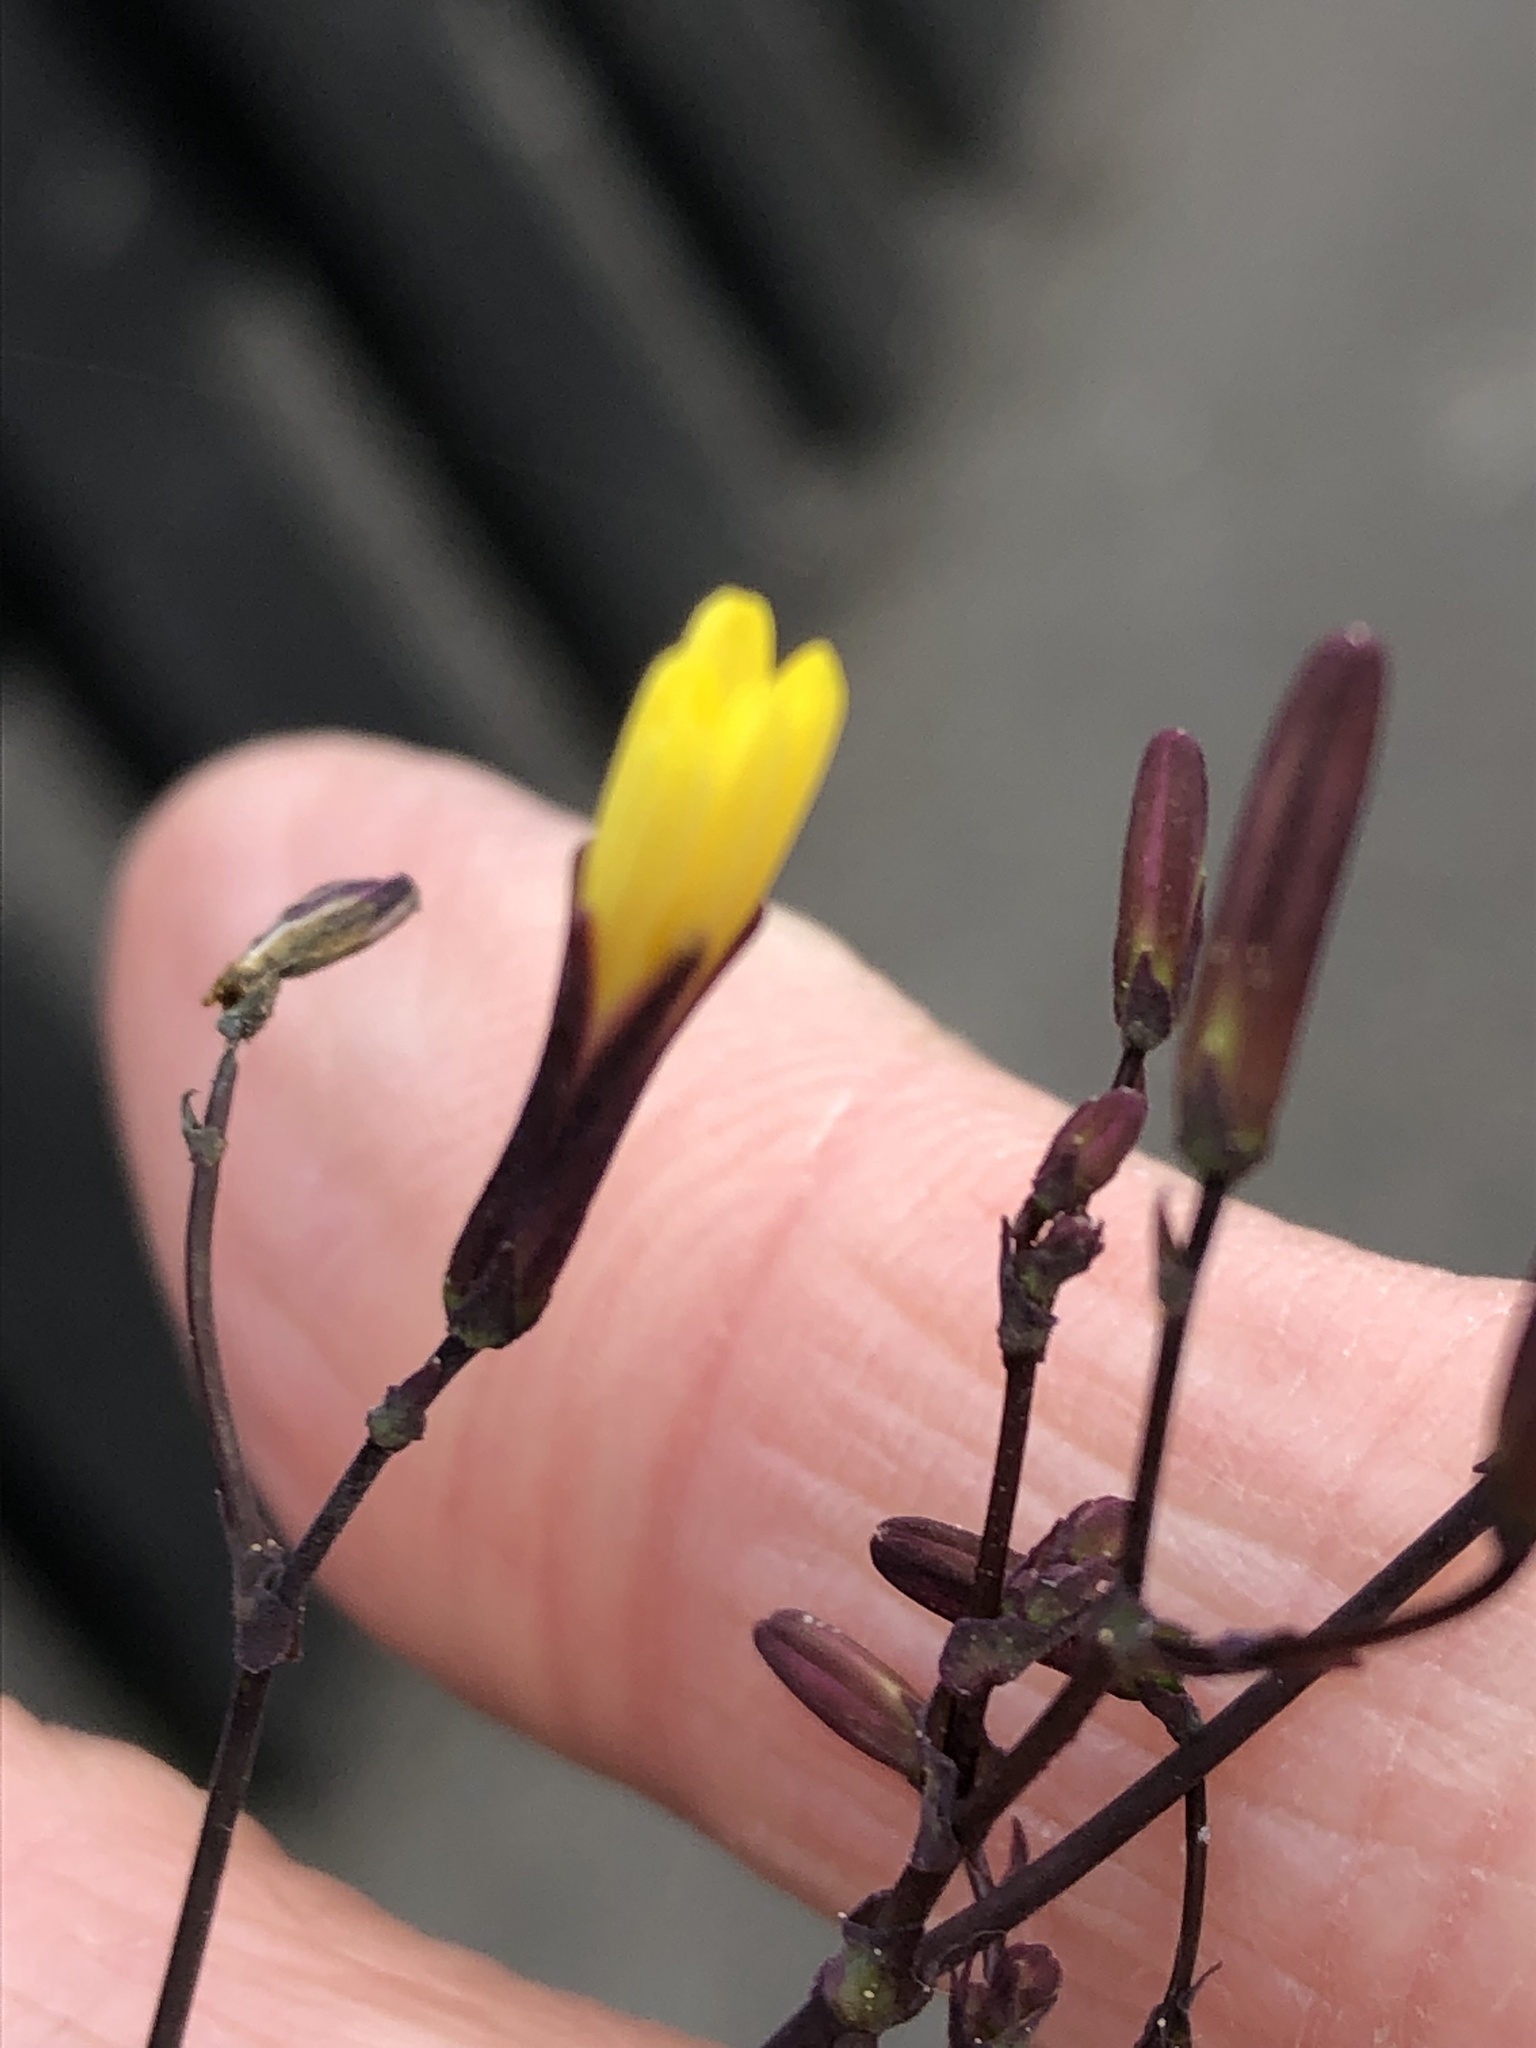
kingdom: Plantae
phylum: Tracheophyta
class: Magnoliopsida
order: Asterales
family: Asteraceae
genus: Mycelis
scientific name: Mycelis muralis
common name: Wall lettuce
